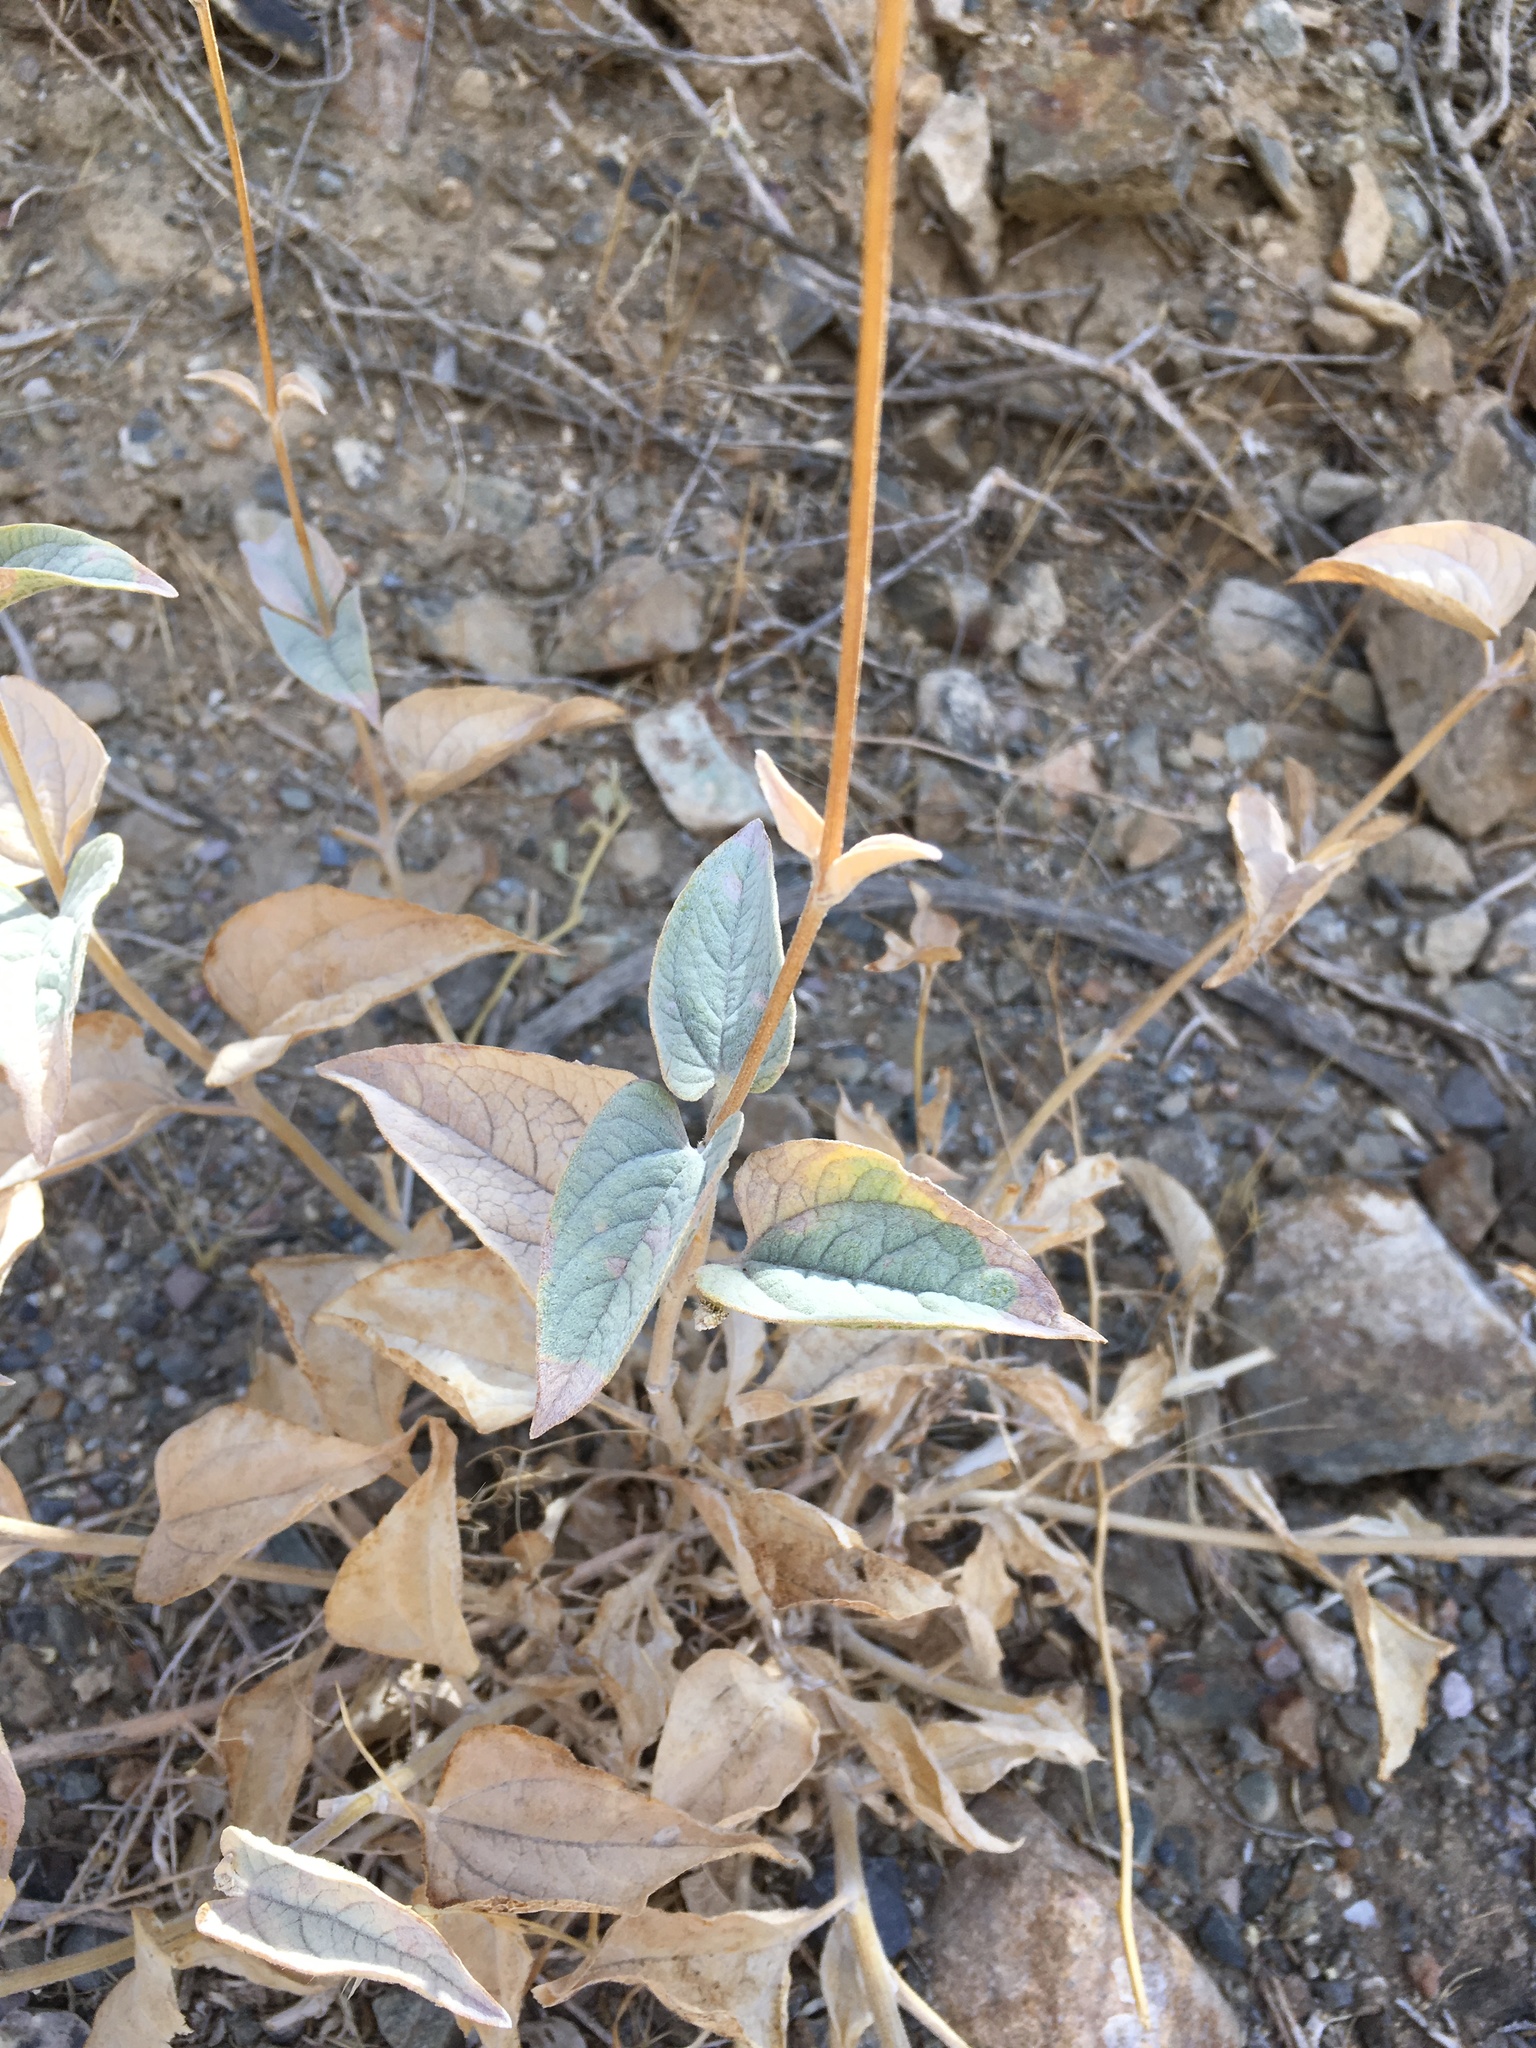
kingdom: Plantae
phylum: Tracheophyta
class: Magnoliopsida
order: Asterales
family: Asteraceae
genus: Bahiopsis
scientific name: Bahiopsis reticulata
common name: Death valley goldeneye
